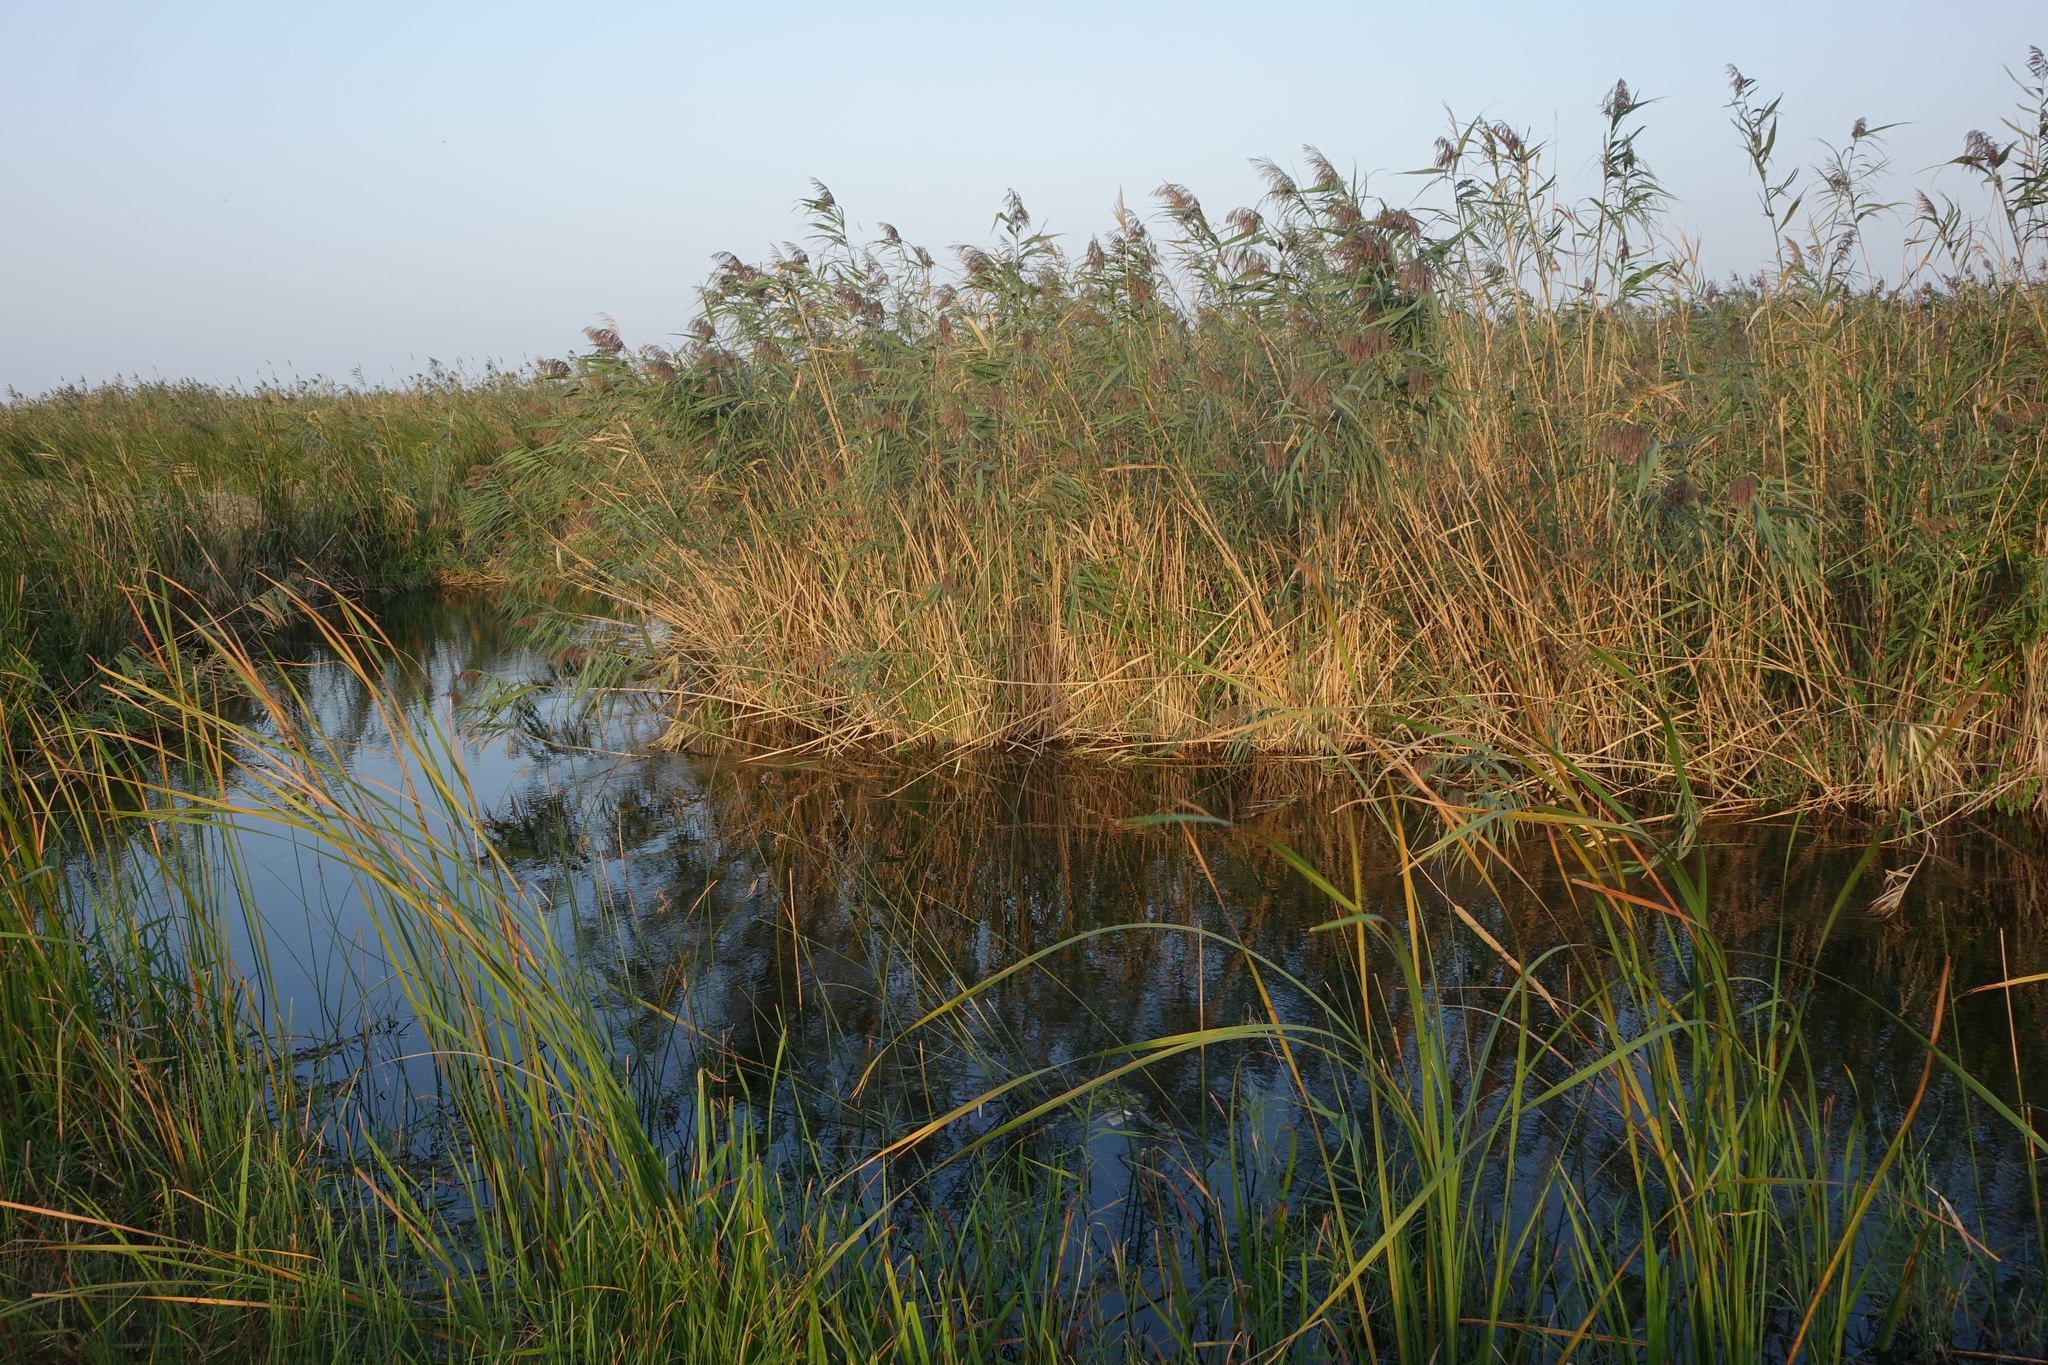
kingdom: Plantae
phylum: Tracheophyta
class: Liliopsida
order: Poales
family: Poaceae
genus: Phragmites
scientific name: Phragmites australis
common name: Common reed
